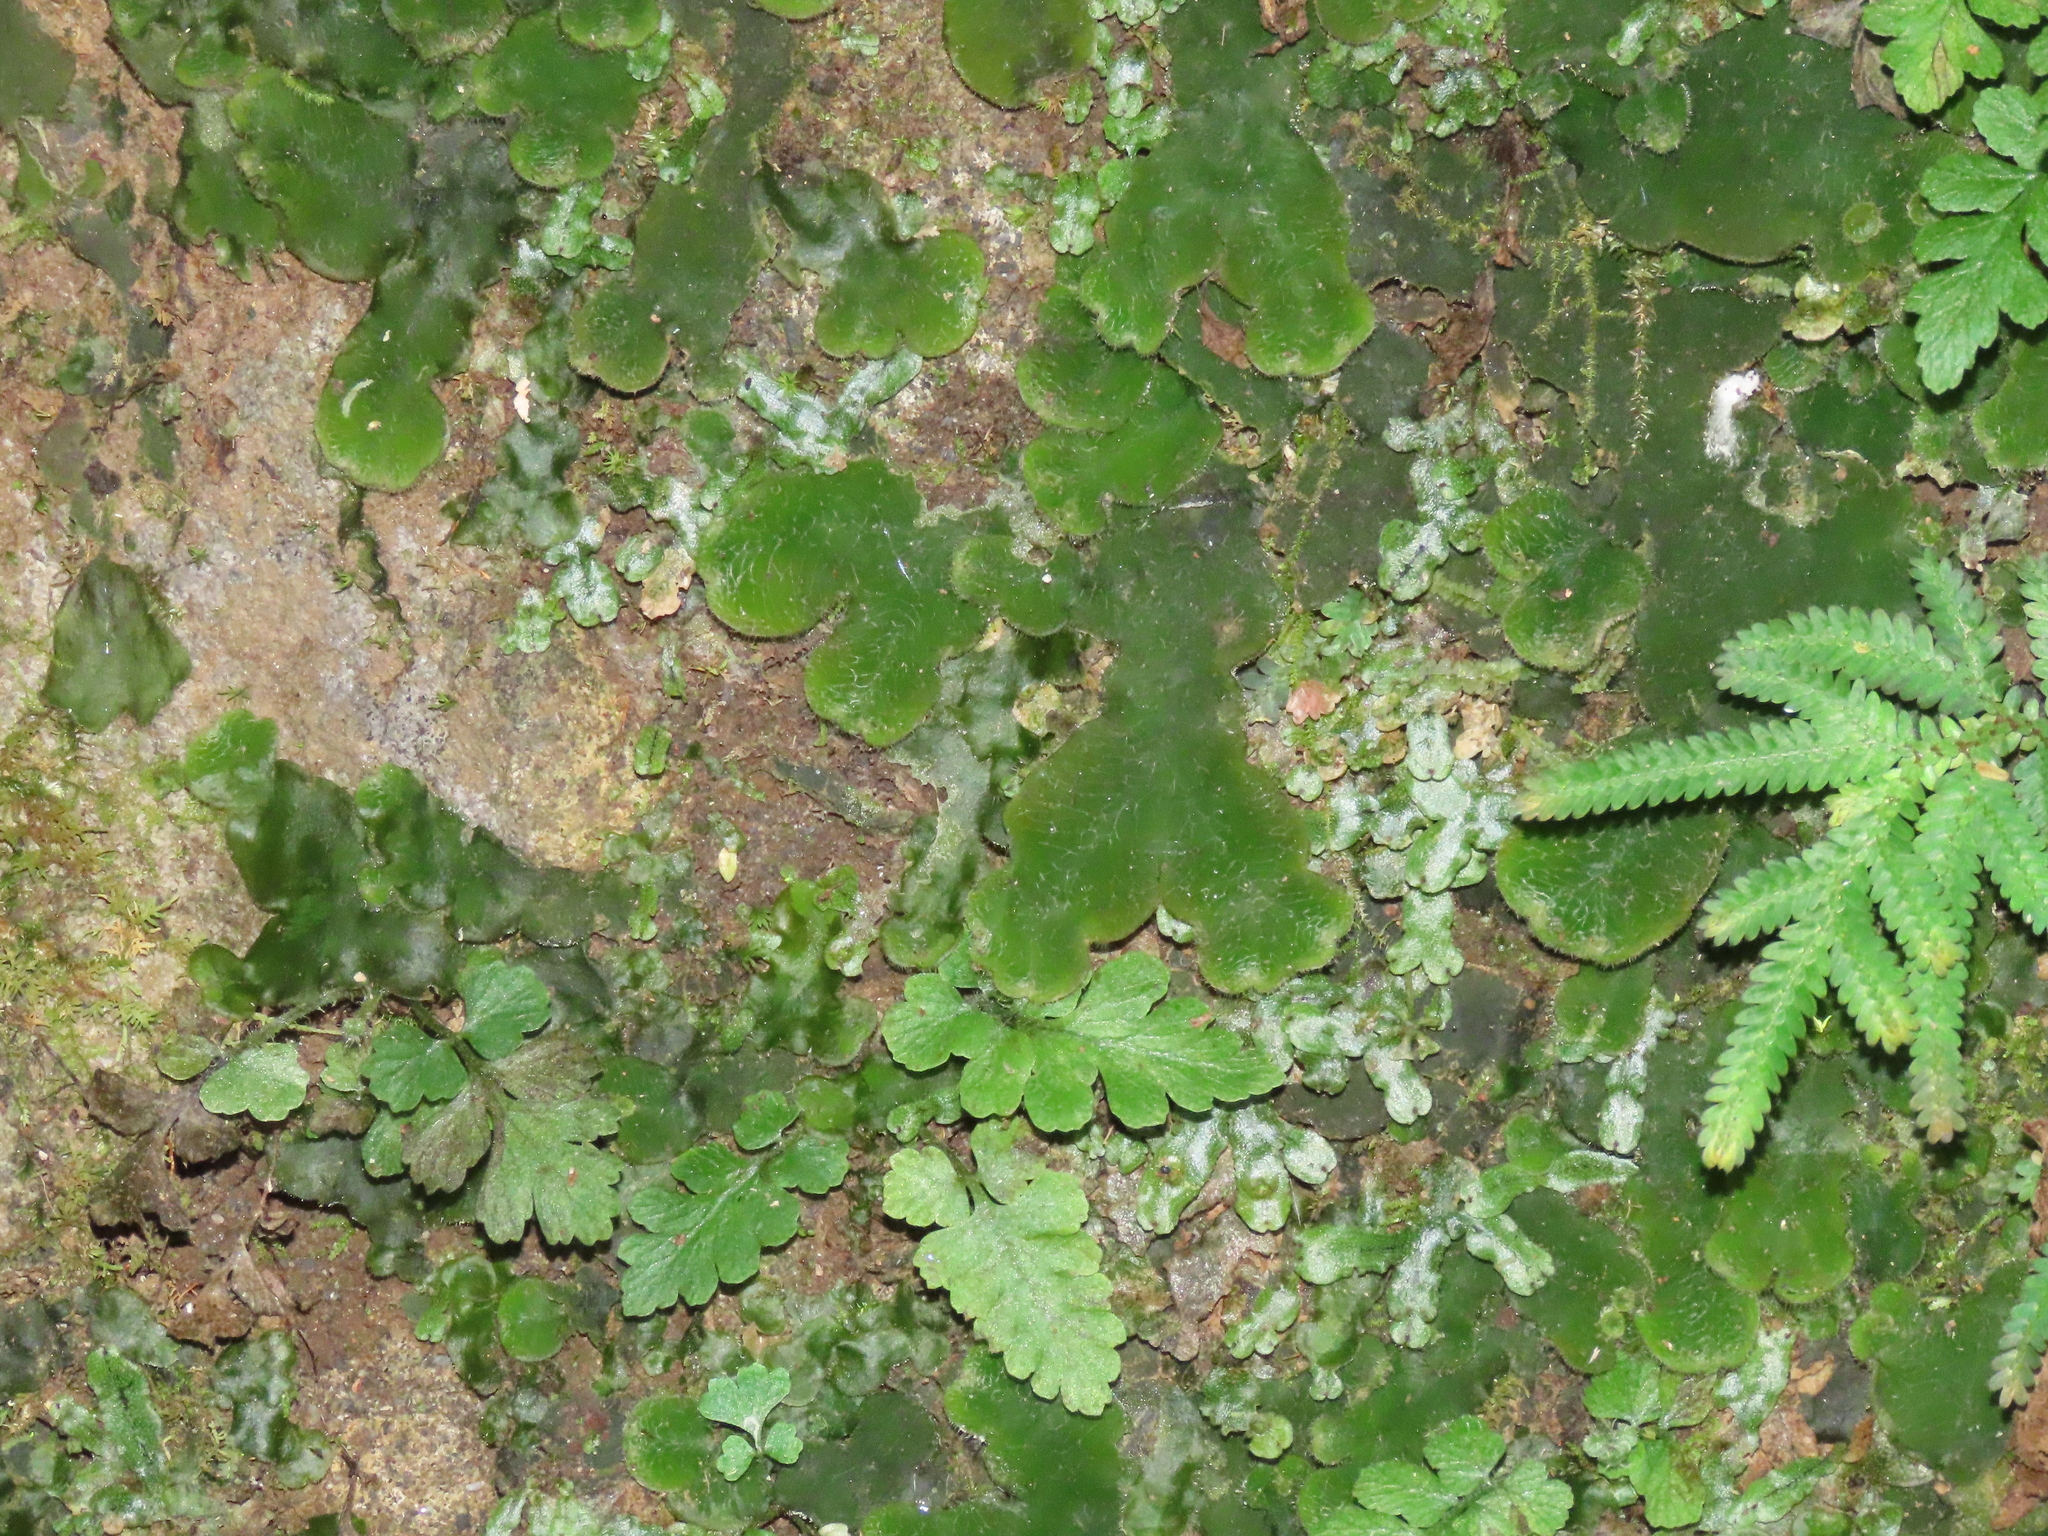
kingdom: Plantae
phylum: Marchantiophyta
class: Marchantiopsida
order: Marchantiales
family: Dumortieraceae
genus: Dumortiera
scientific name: Dumortiera hirsuta
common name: Dumortier's liverwort
